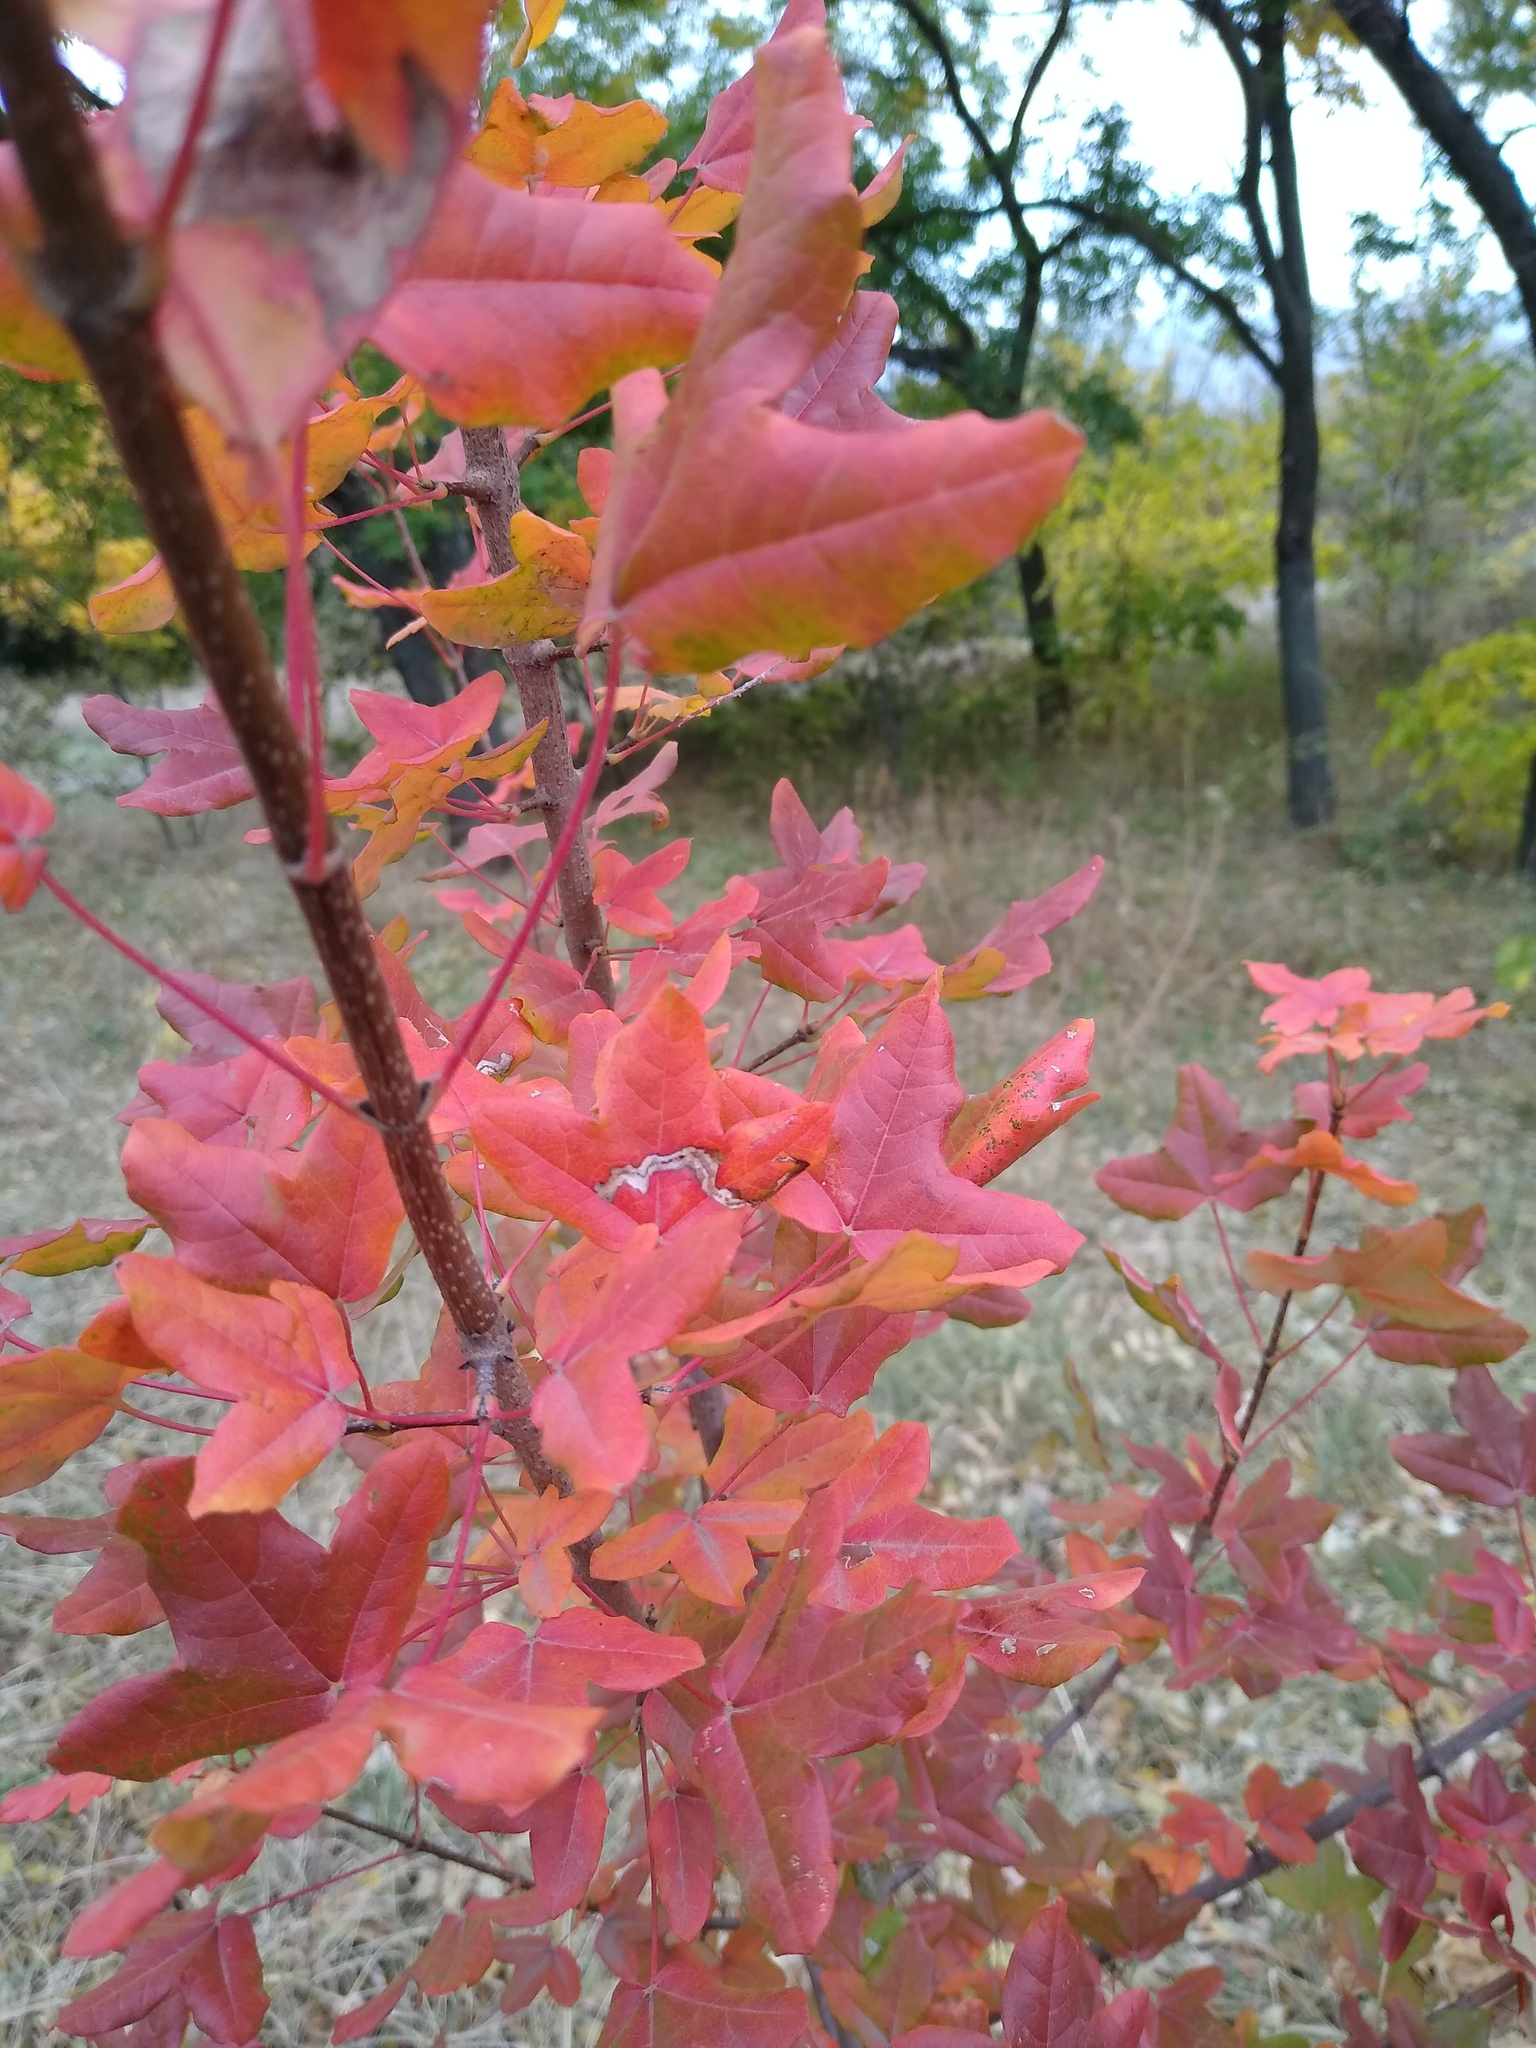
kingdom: Plantae
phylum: Tracheophyta
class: Magnoliopsida
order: Sapindales
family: Sapindaceae
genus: Acer
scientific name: Acer monspessulanum
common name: Montpellier maple
